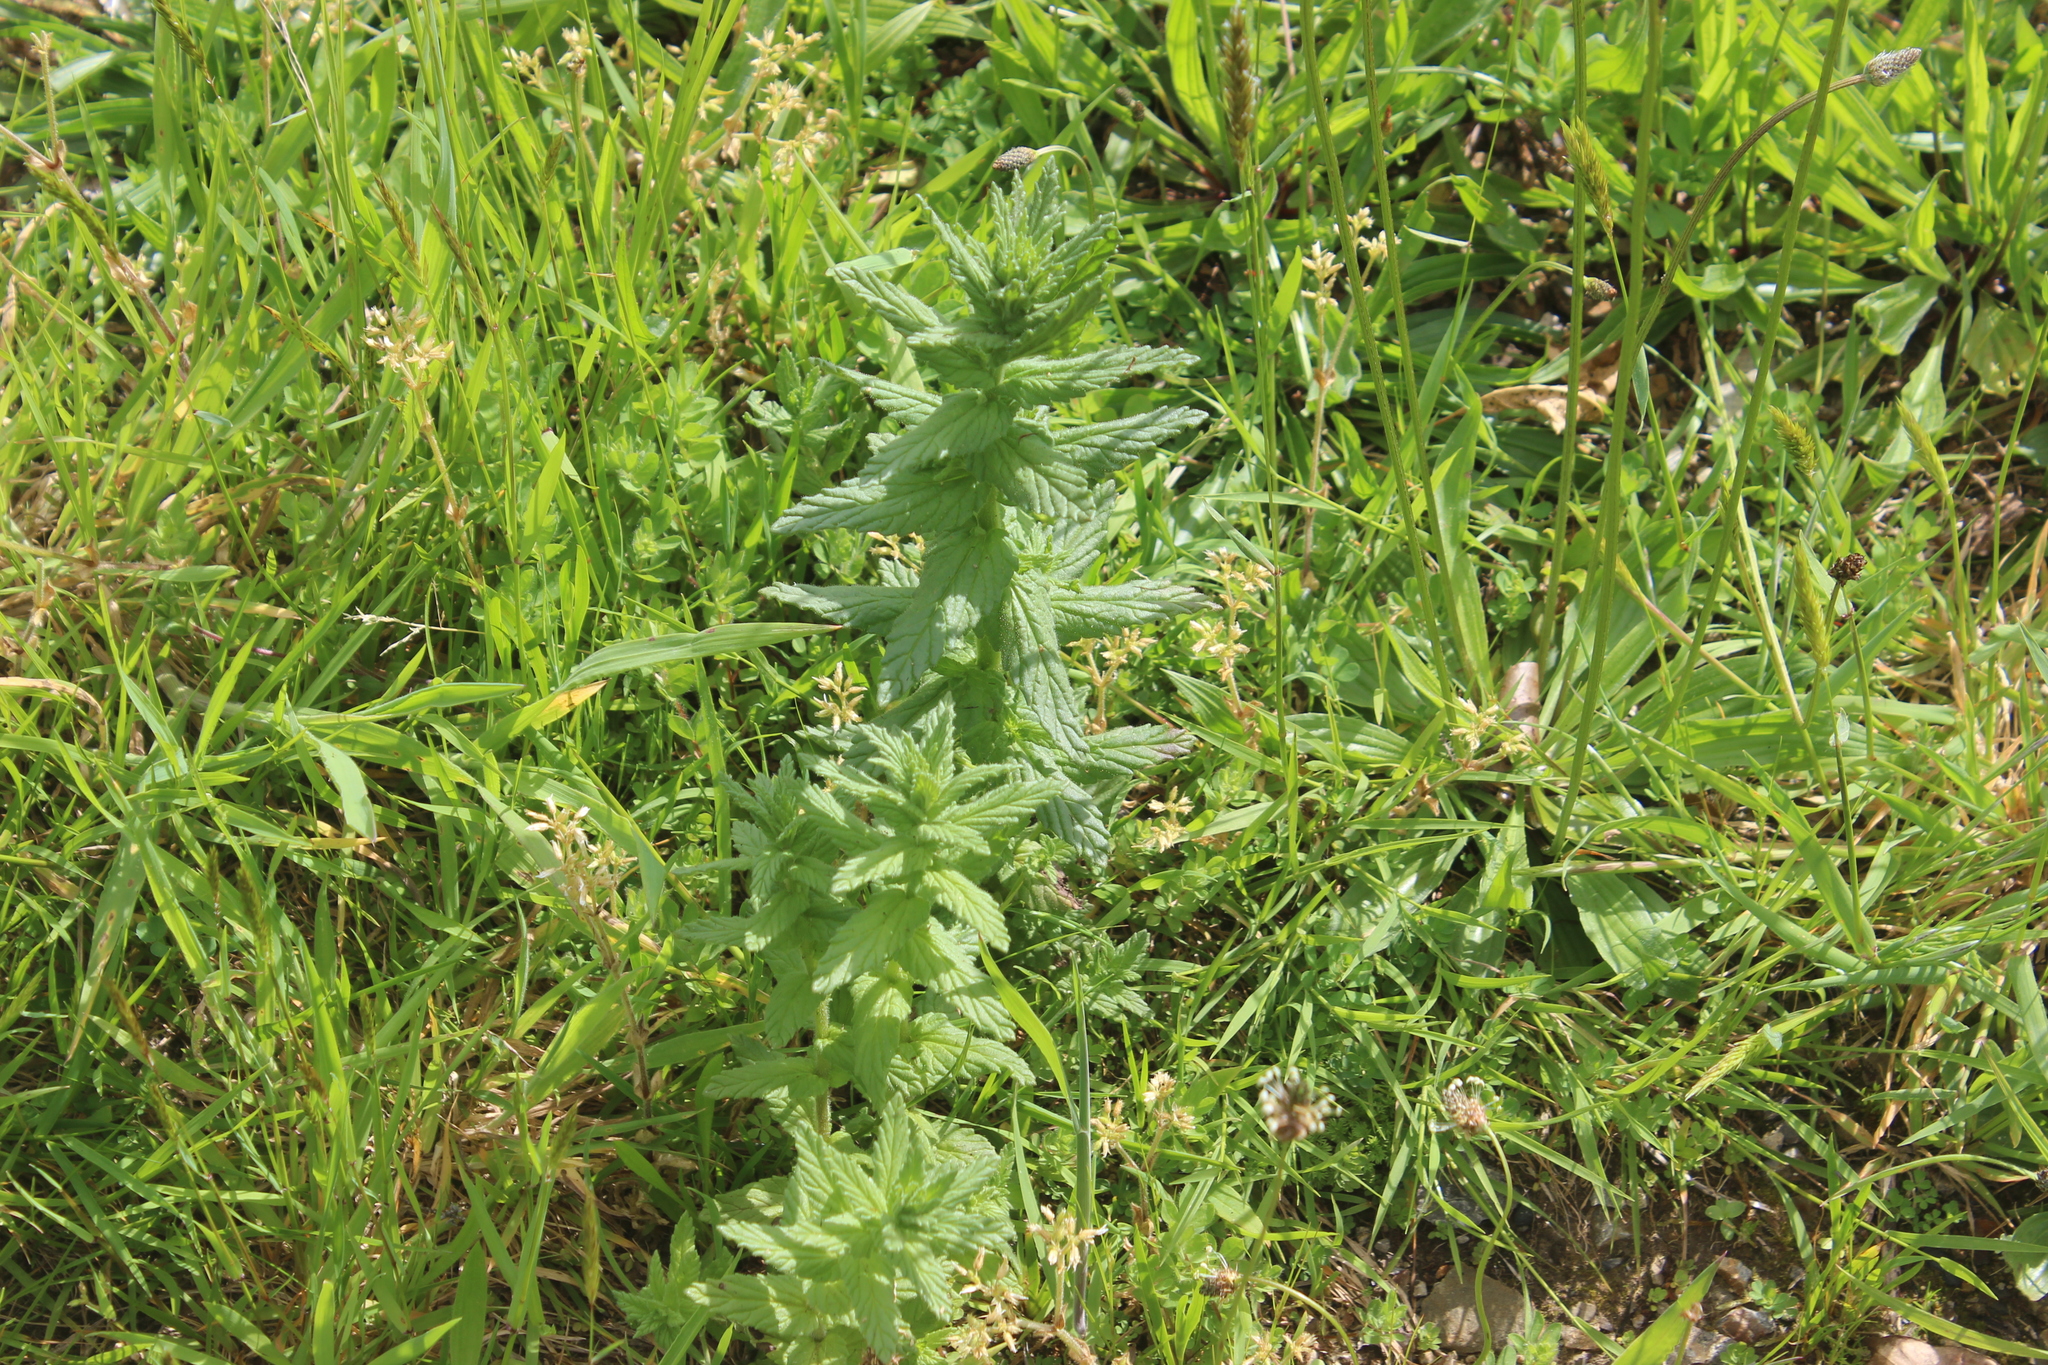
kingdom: Plantae
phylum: Tracheophyta
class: Magnoliopsida
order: Lamiales
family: Orobanchaceae
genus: Bellardia
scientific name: Bellardia viscosa
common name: Sticky parentucellia
